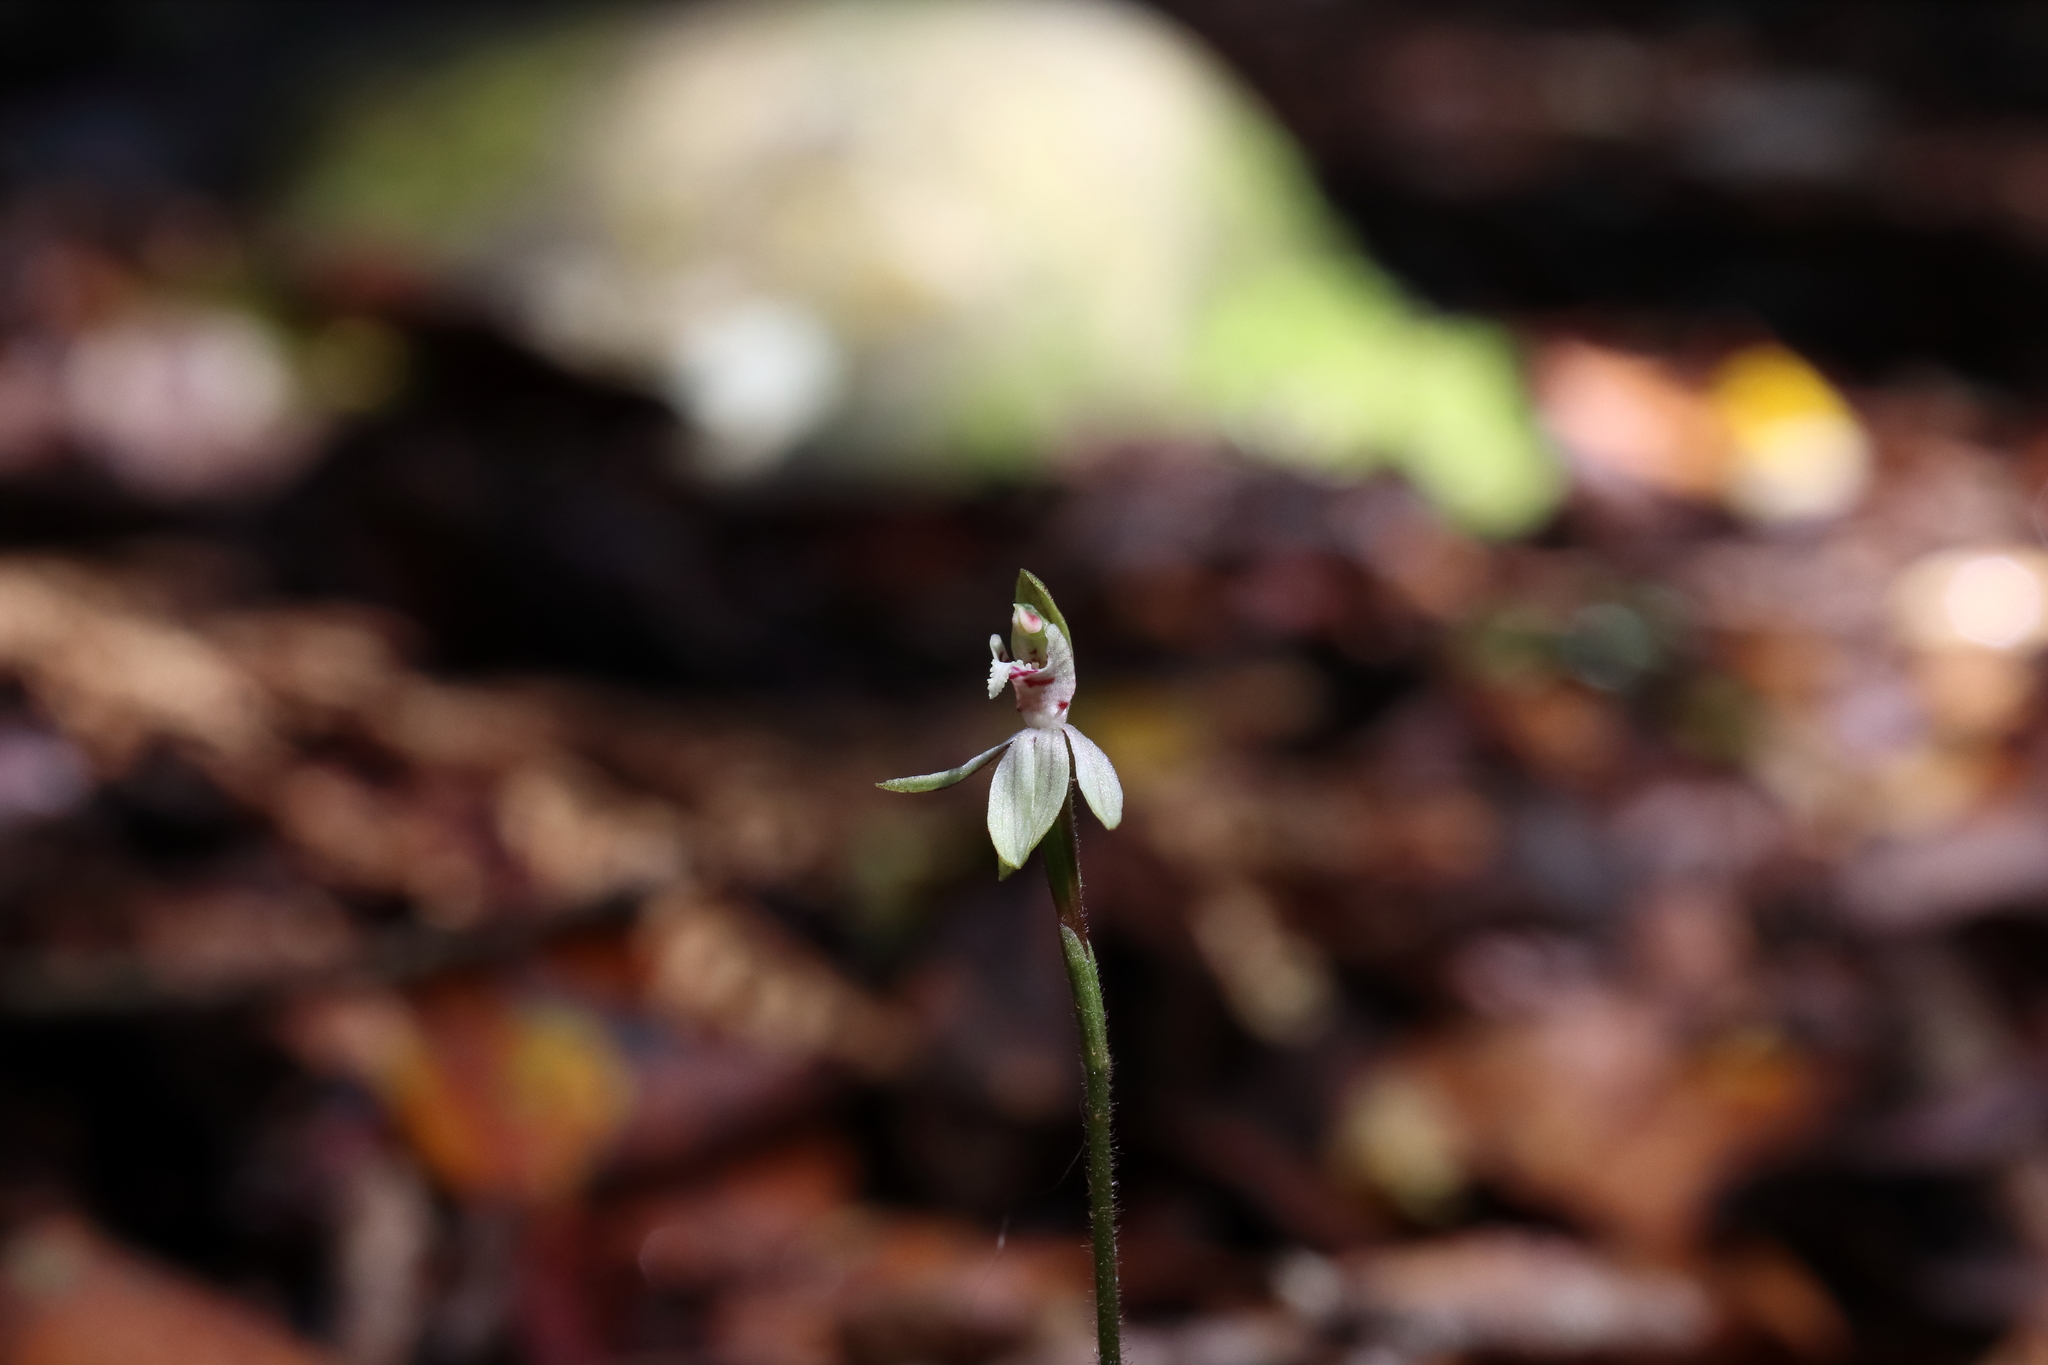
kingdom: Plantae
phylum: Tracheophyta
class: Liliopsida
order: Asparagales
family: Orchidaceae
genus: Caladenia
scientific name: Caladenia chlorostyla
